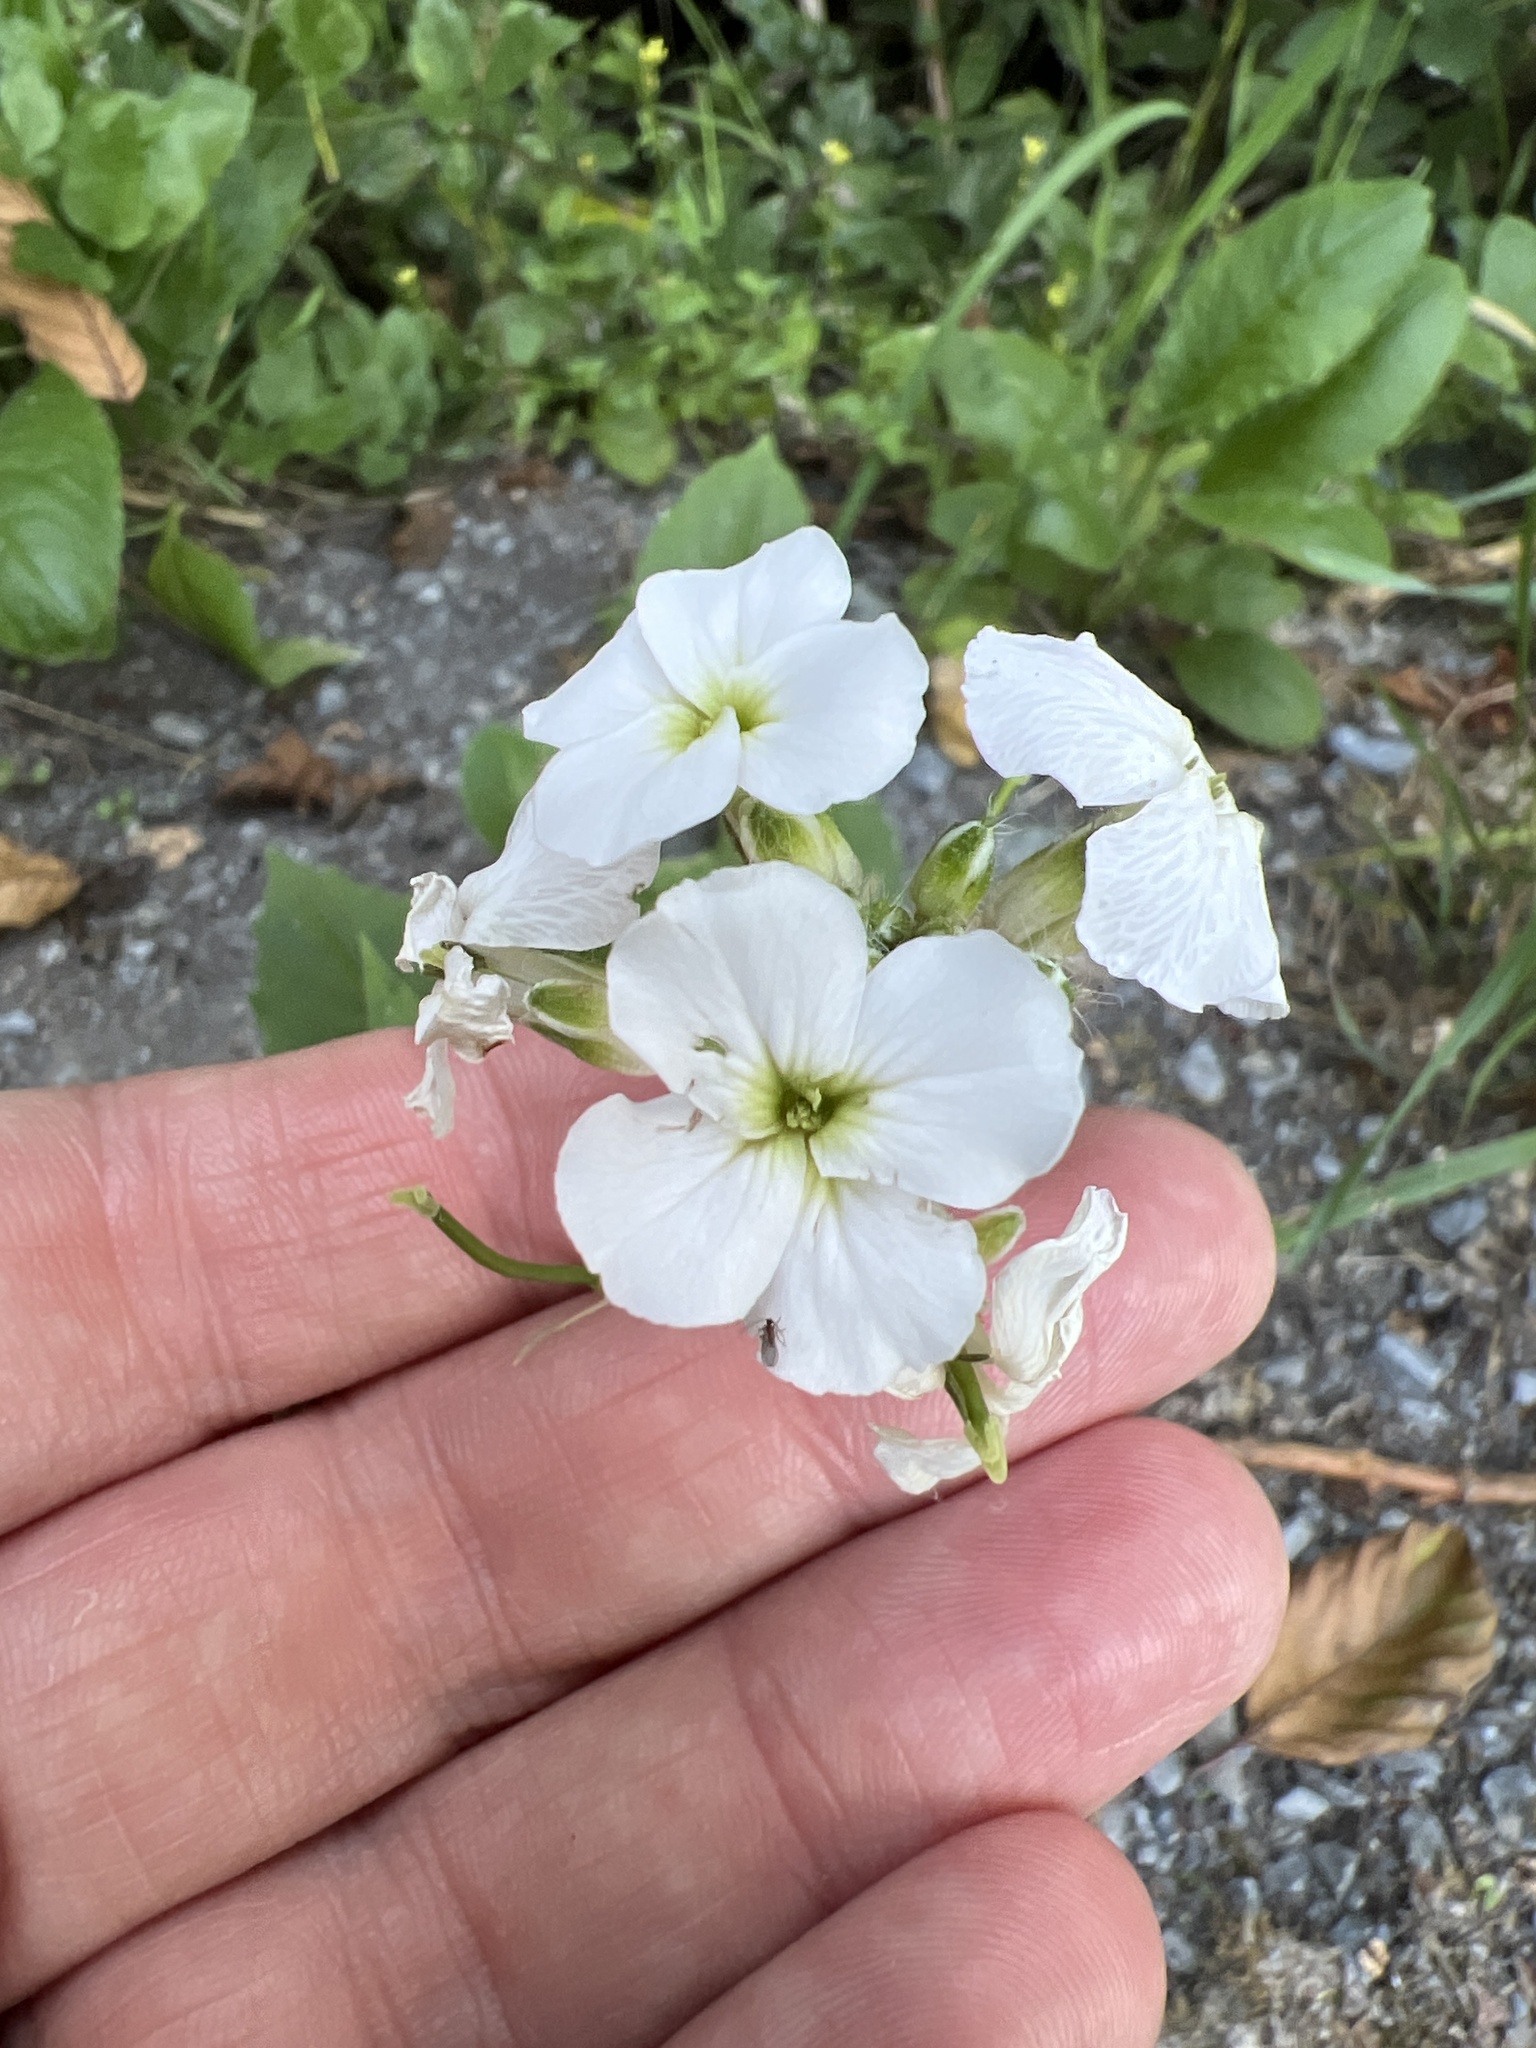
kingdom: Plantae
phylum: Tracheophyta
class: Magnoliopsida
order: Brassicales
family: Brassicaceae
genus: Hesperis
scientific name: Hesperis matronalis
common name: Dame's-violet
